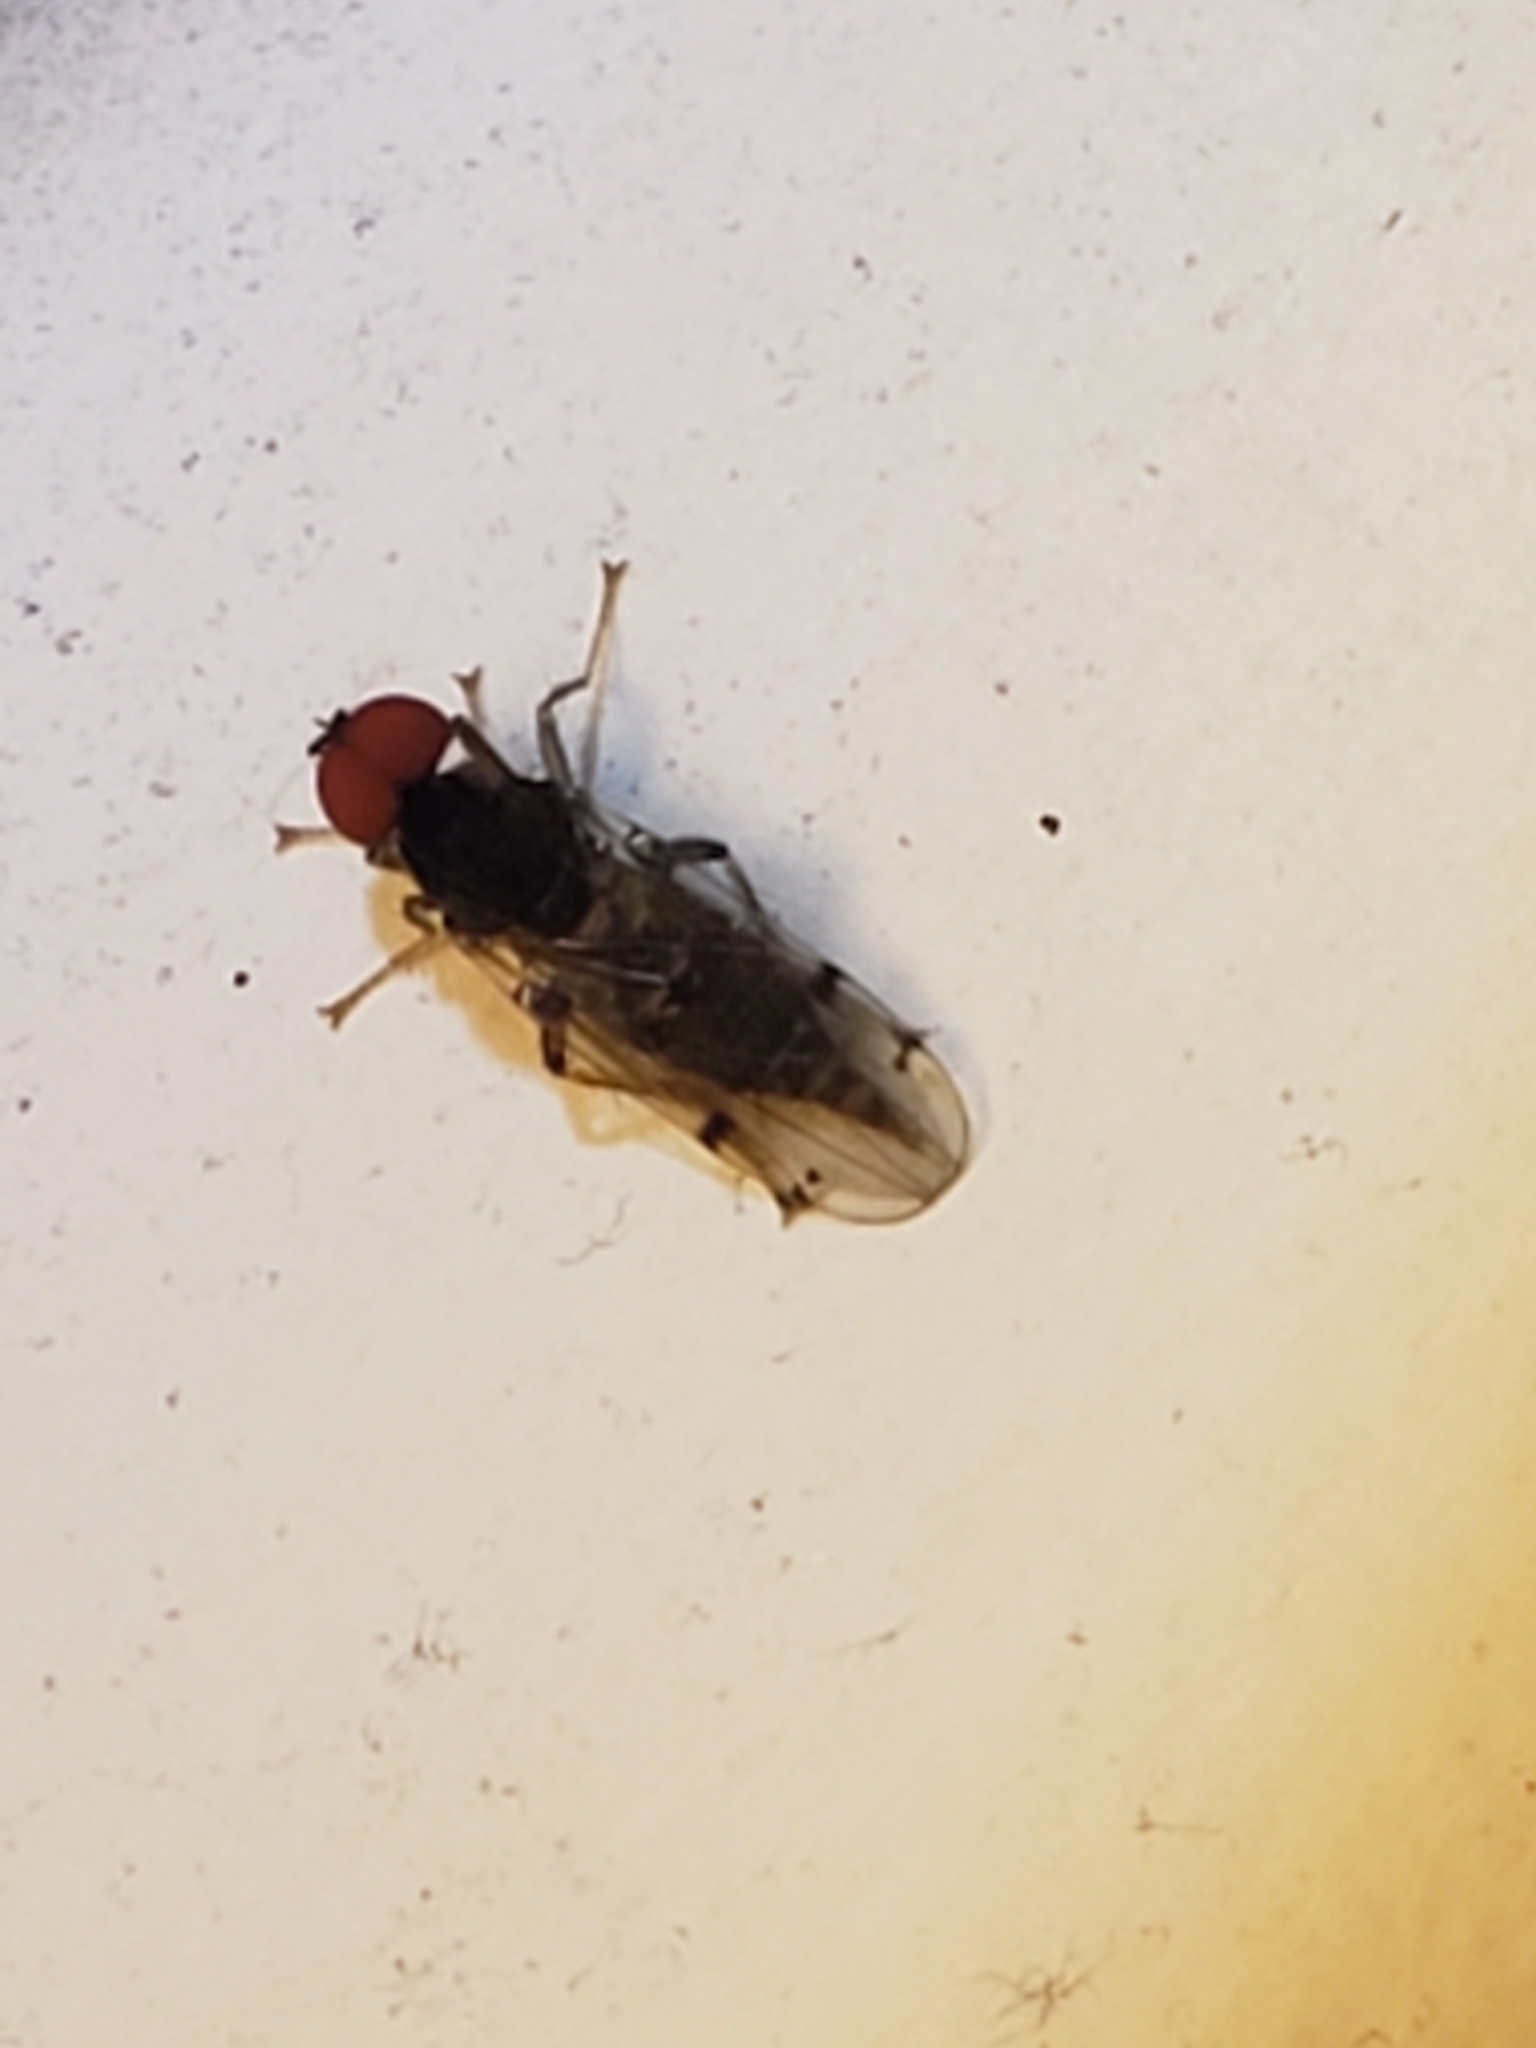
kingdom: Animalia
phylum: Arthropoda
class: Insecta
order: Diptera
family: Hybotidae
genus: Syneches
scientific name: Syneches simplex
